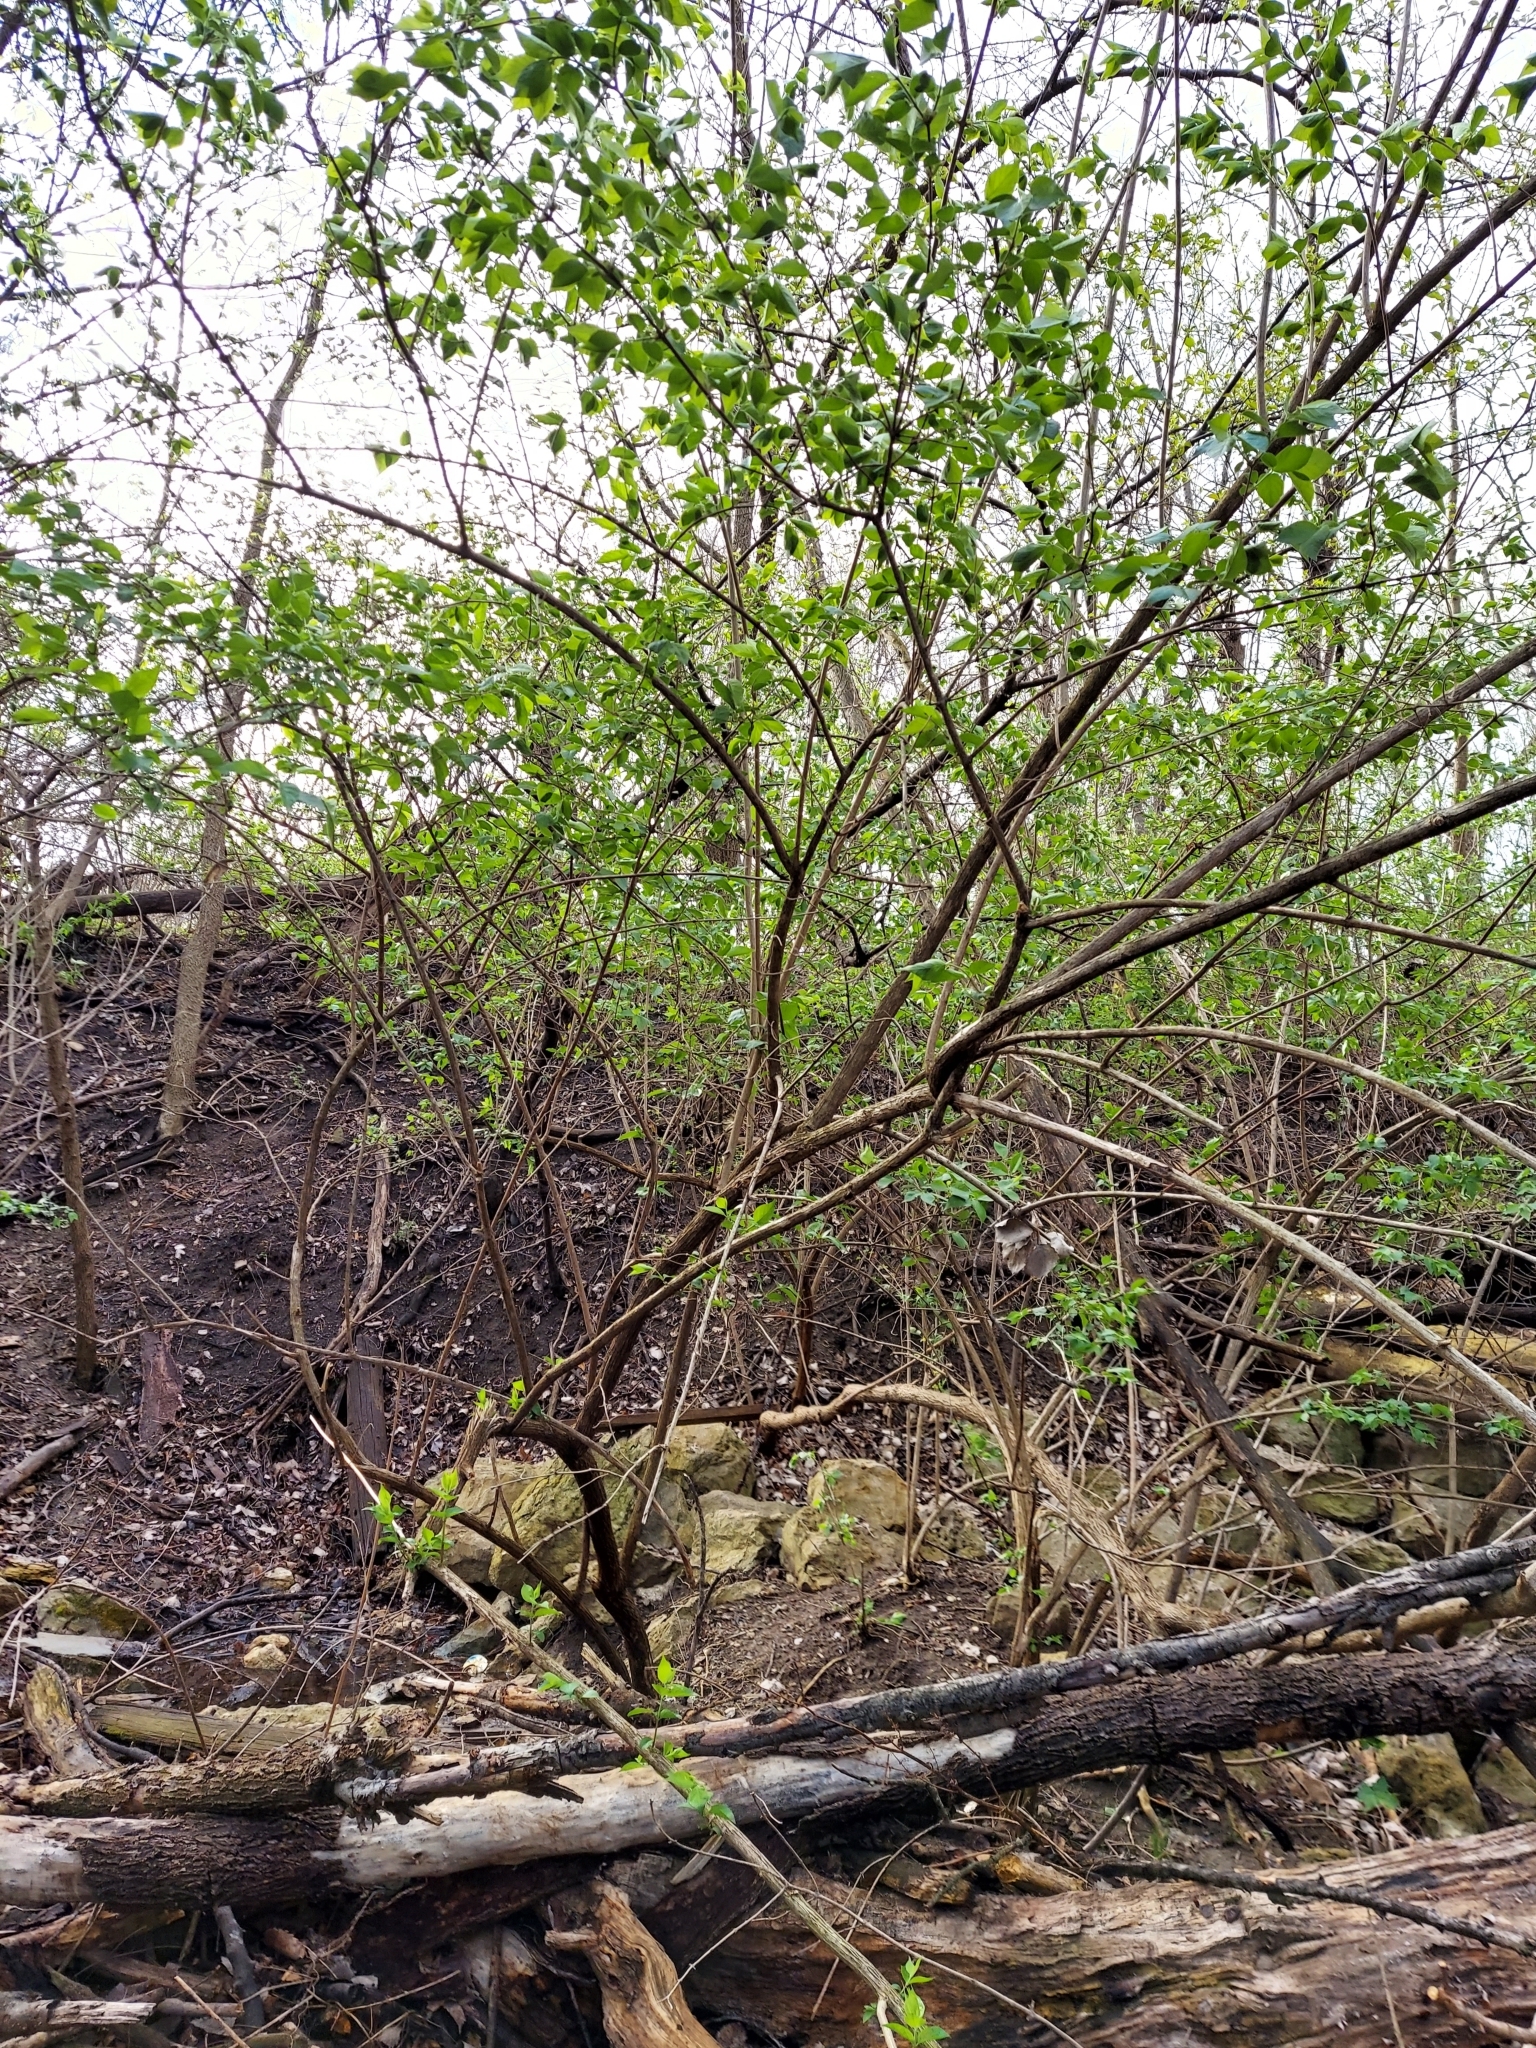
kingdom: Plantae
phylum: Tracheophyta
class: Magnoliopsida
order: Dipsacales
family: Caprifoliaceae
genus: Lonicera
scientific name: Lonicera maackii
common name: Amur honeysuckle
